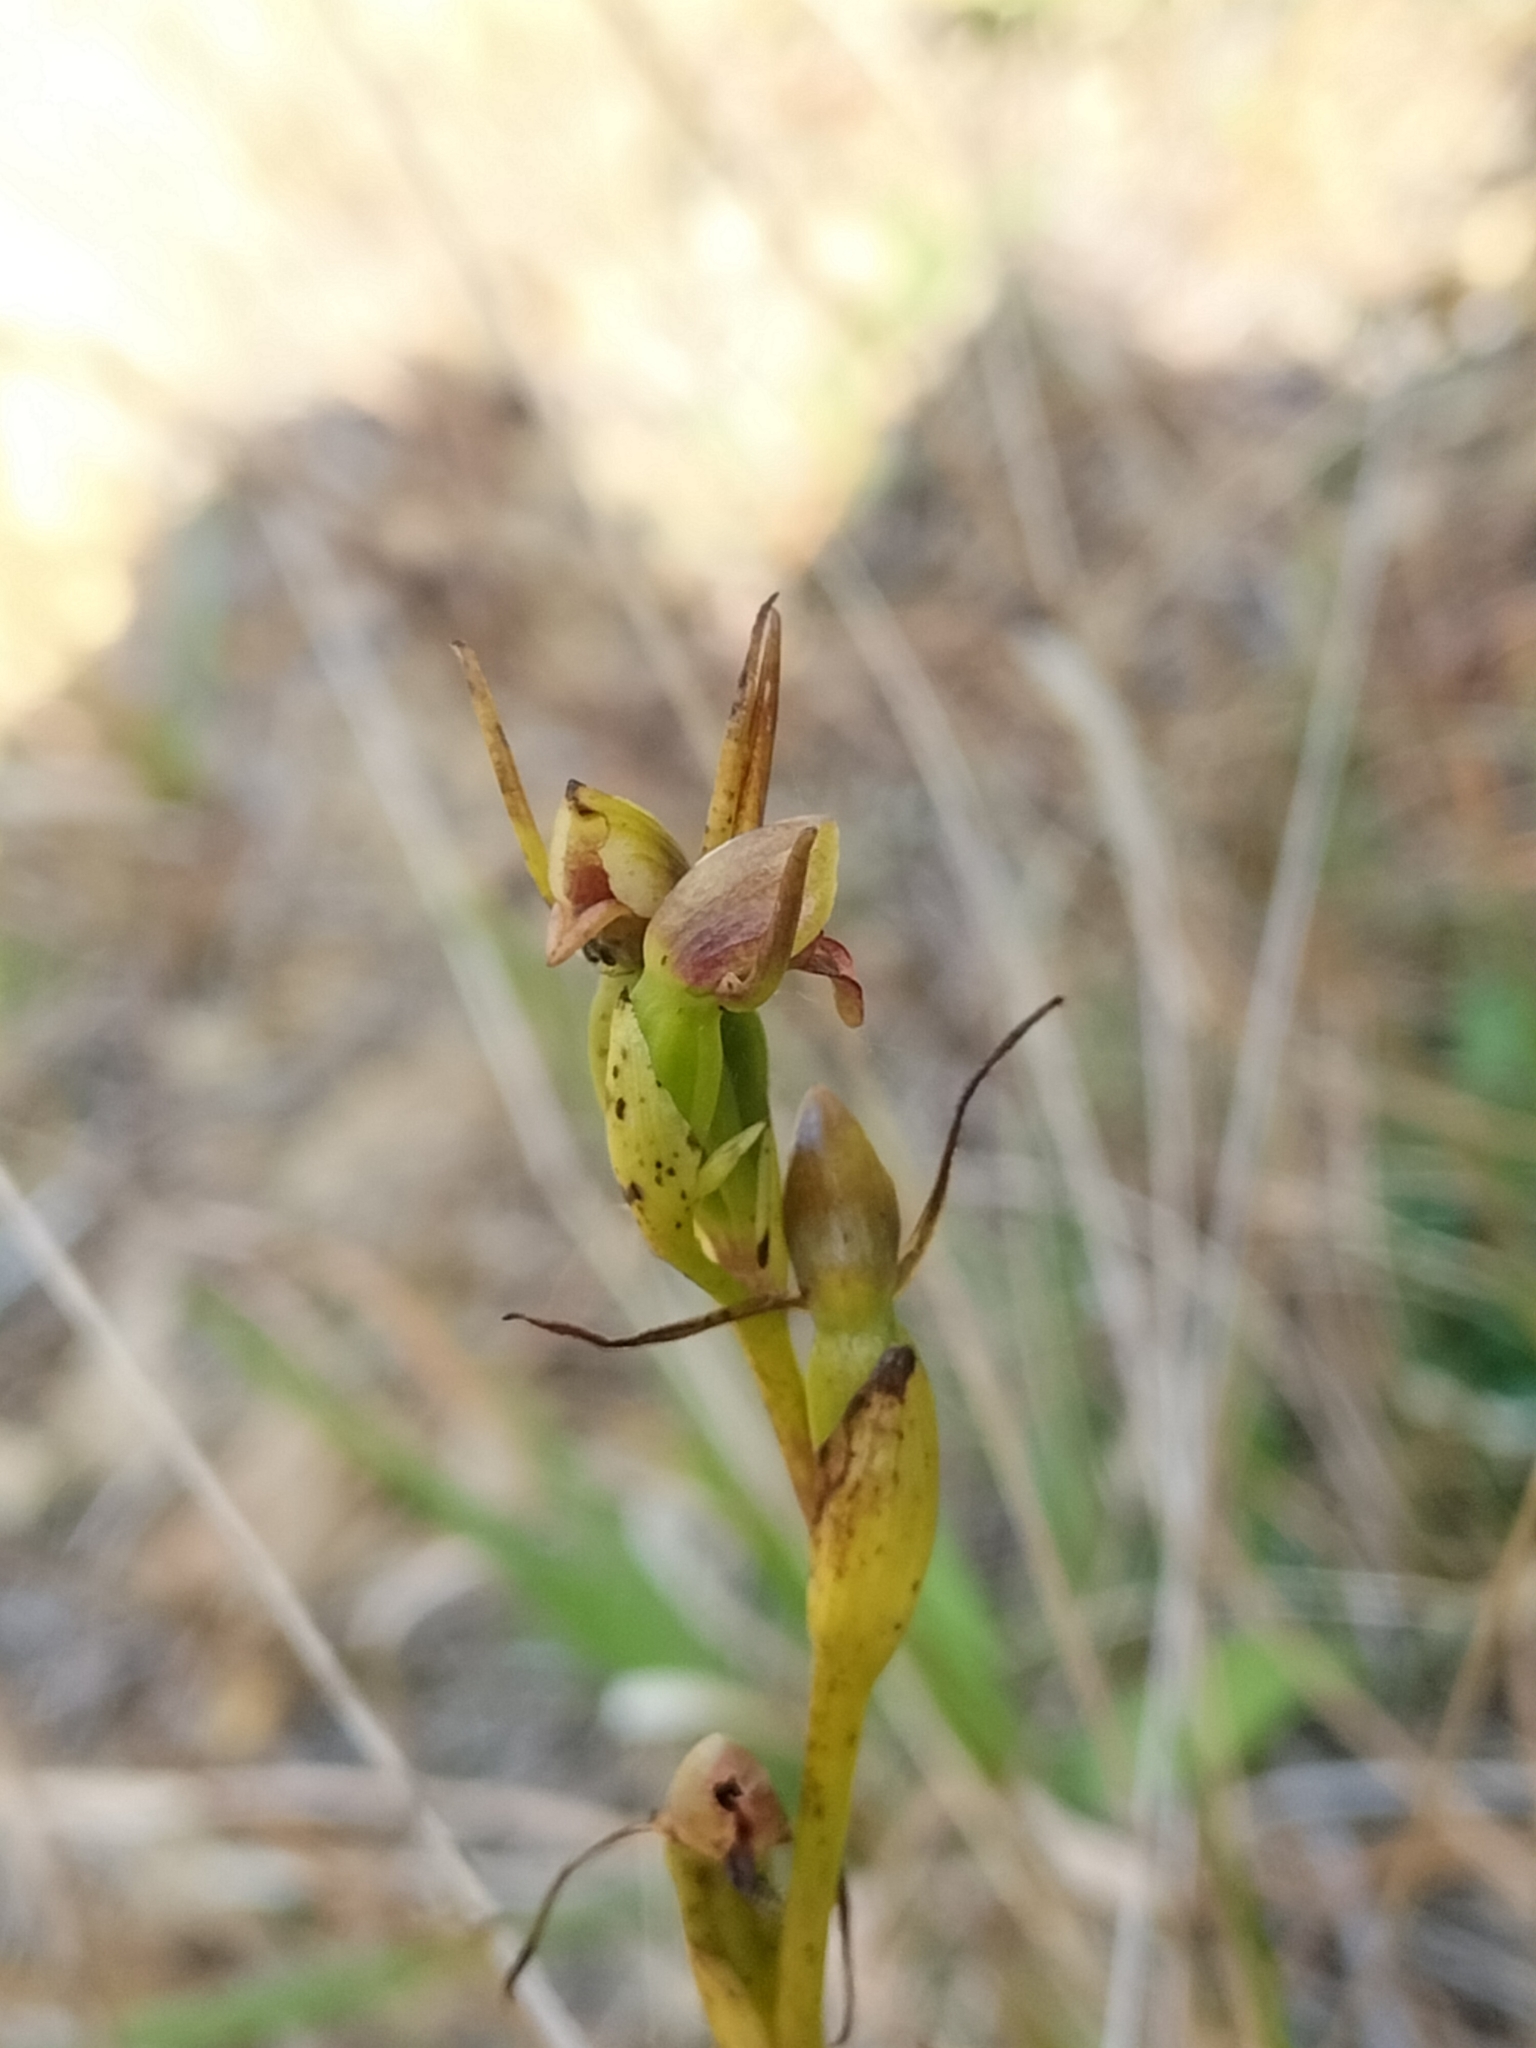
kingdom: Plantae
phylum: Tracheophyta
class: Liliopsida
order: Asparagales
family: Orchidaceae
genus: Orthoceras
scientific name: Orthoceras novae-zeelandiae
